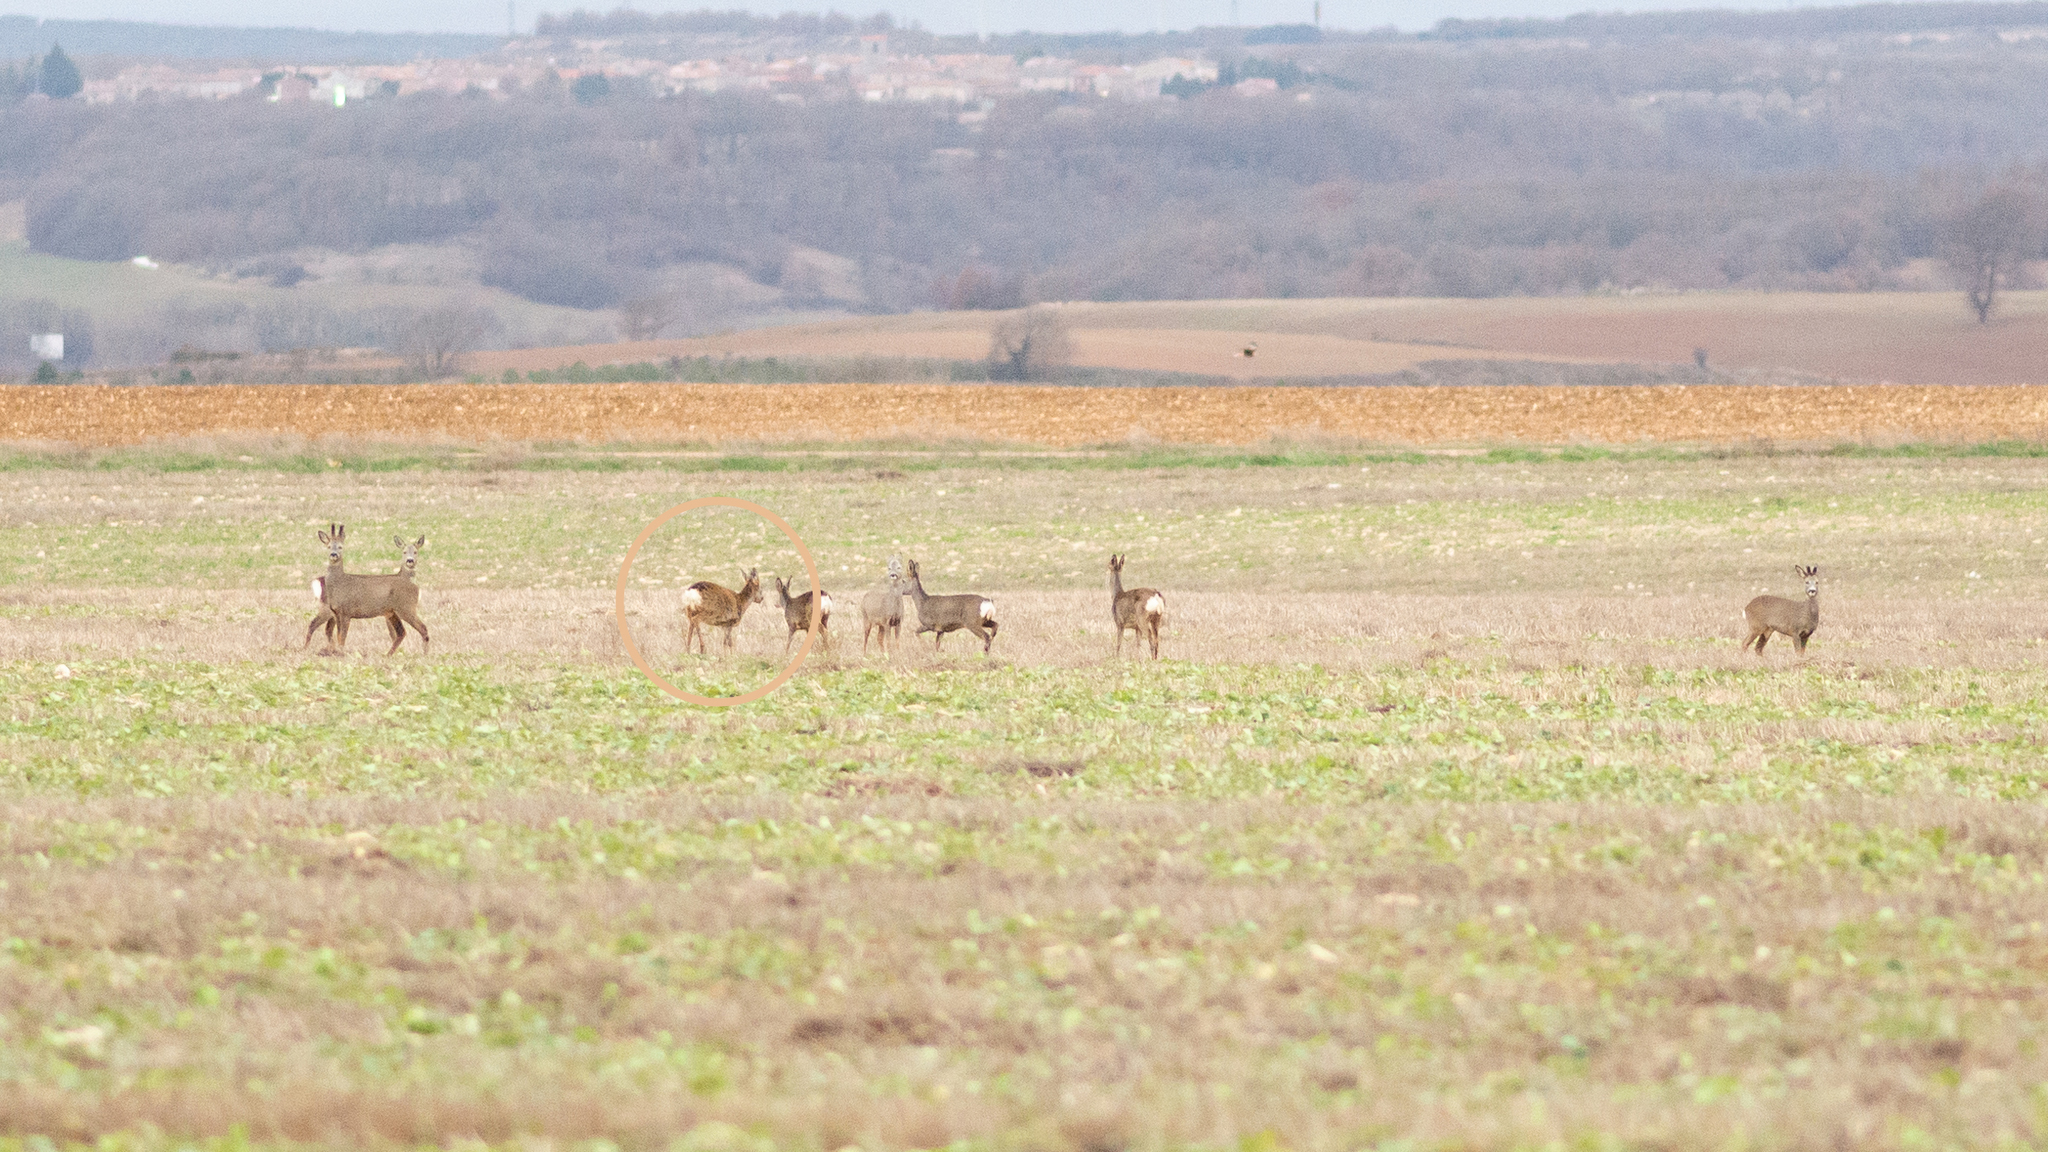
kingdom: Animalia
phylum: Chordata
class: Mammalia
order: Artiodactyla
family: Cervidae
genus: Capreolus
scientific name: Capreolus capreolus
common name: Western roe deer
